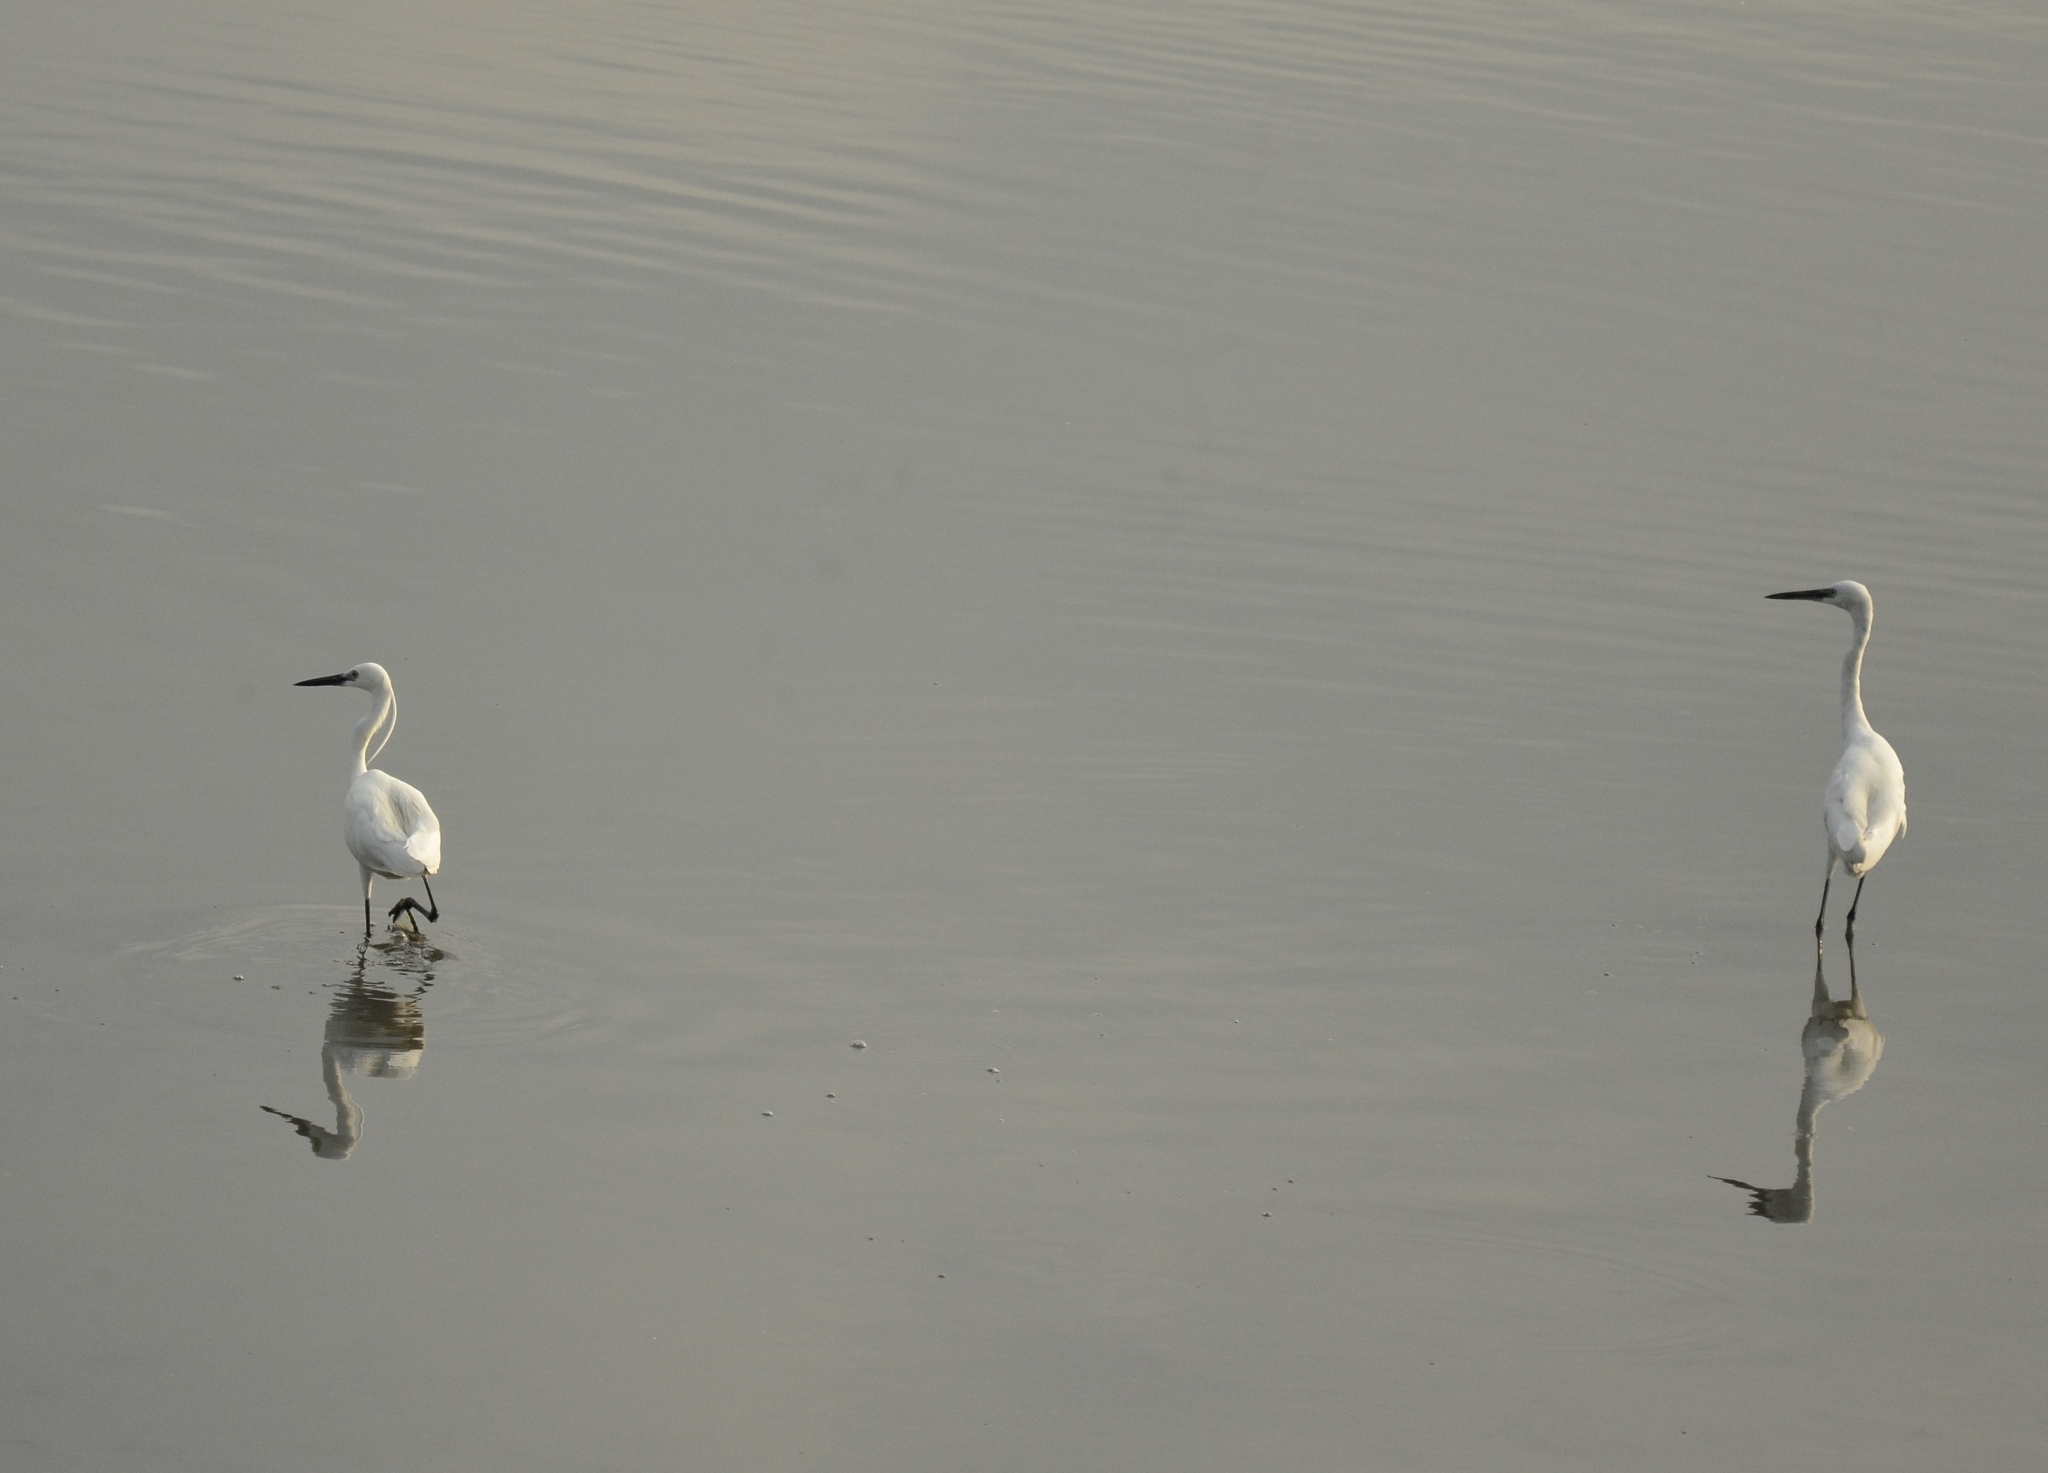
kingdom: Animalia
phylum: Chordata
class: Aves
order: Pelecaniformes
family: Ardeidae
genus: Egretta
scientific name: Egretta garzetta
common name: Little egret
